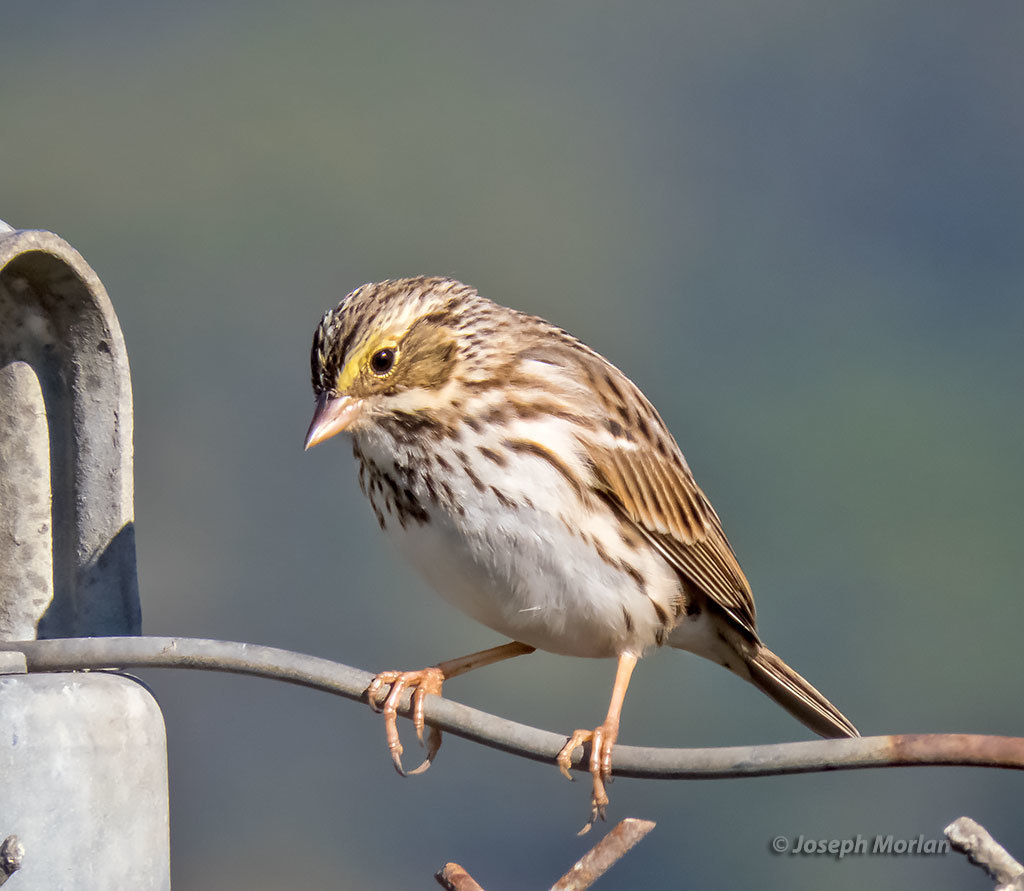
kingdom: Animalia
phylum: Chordata
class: Aves
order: Passeriformes
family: Passerellidae
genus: Passerculus
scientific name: Passerculus sandwichensis
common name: Savannah sparrow
